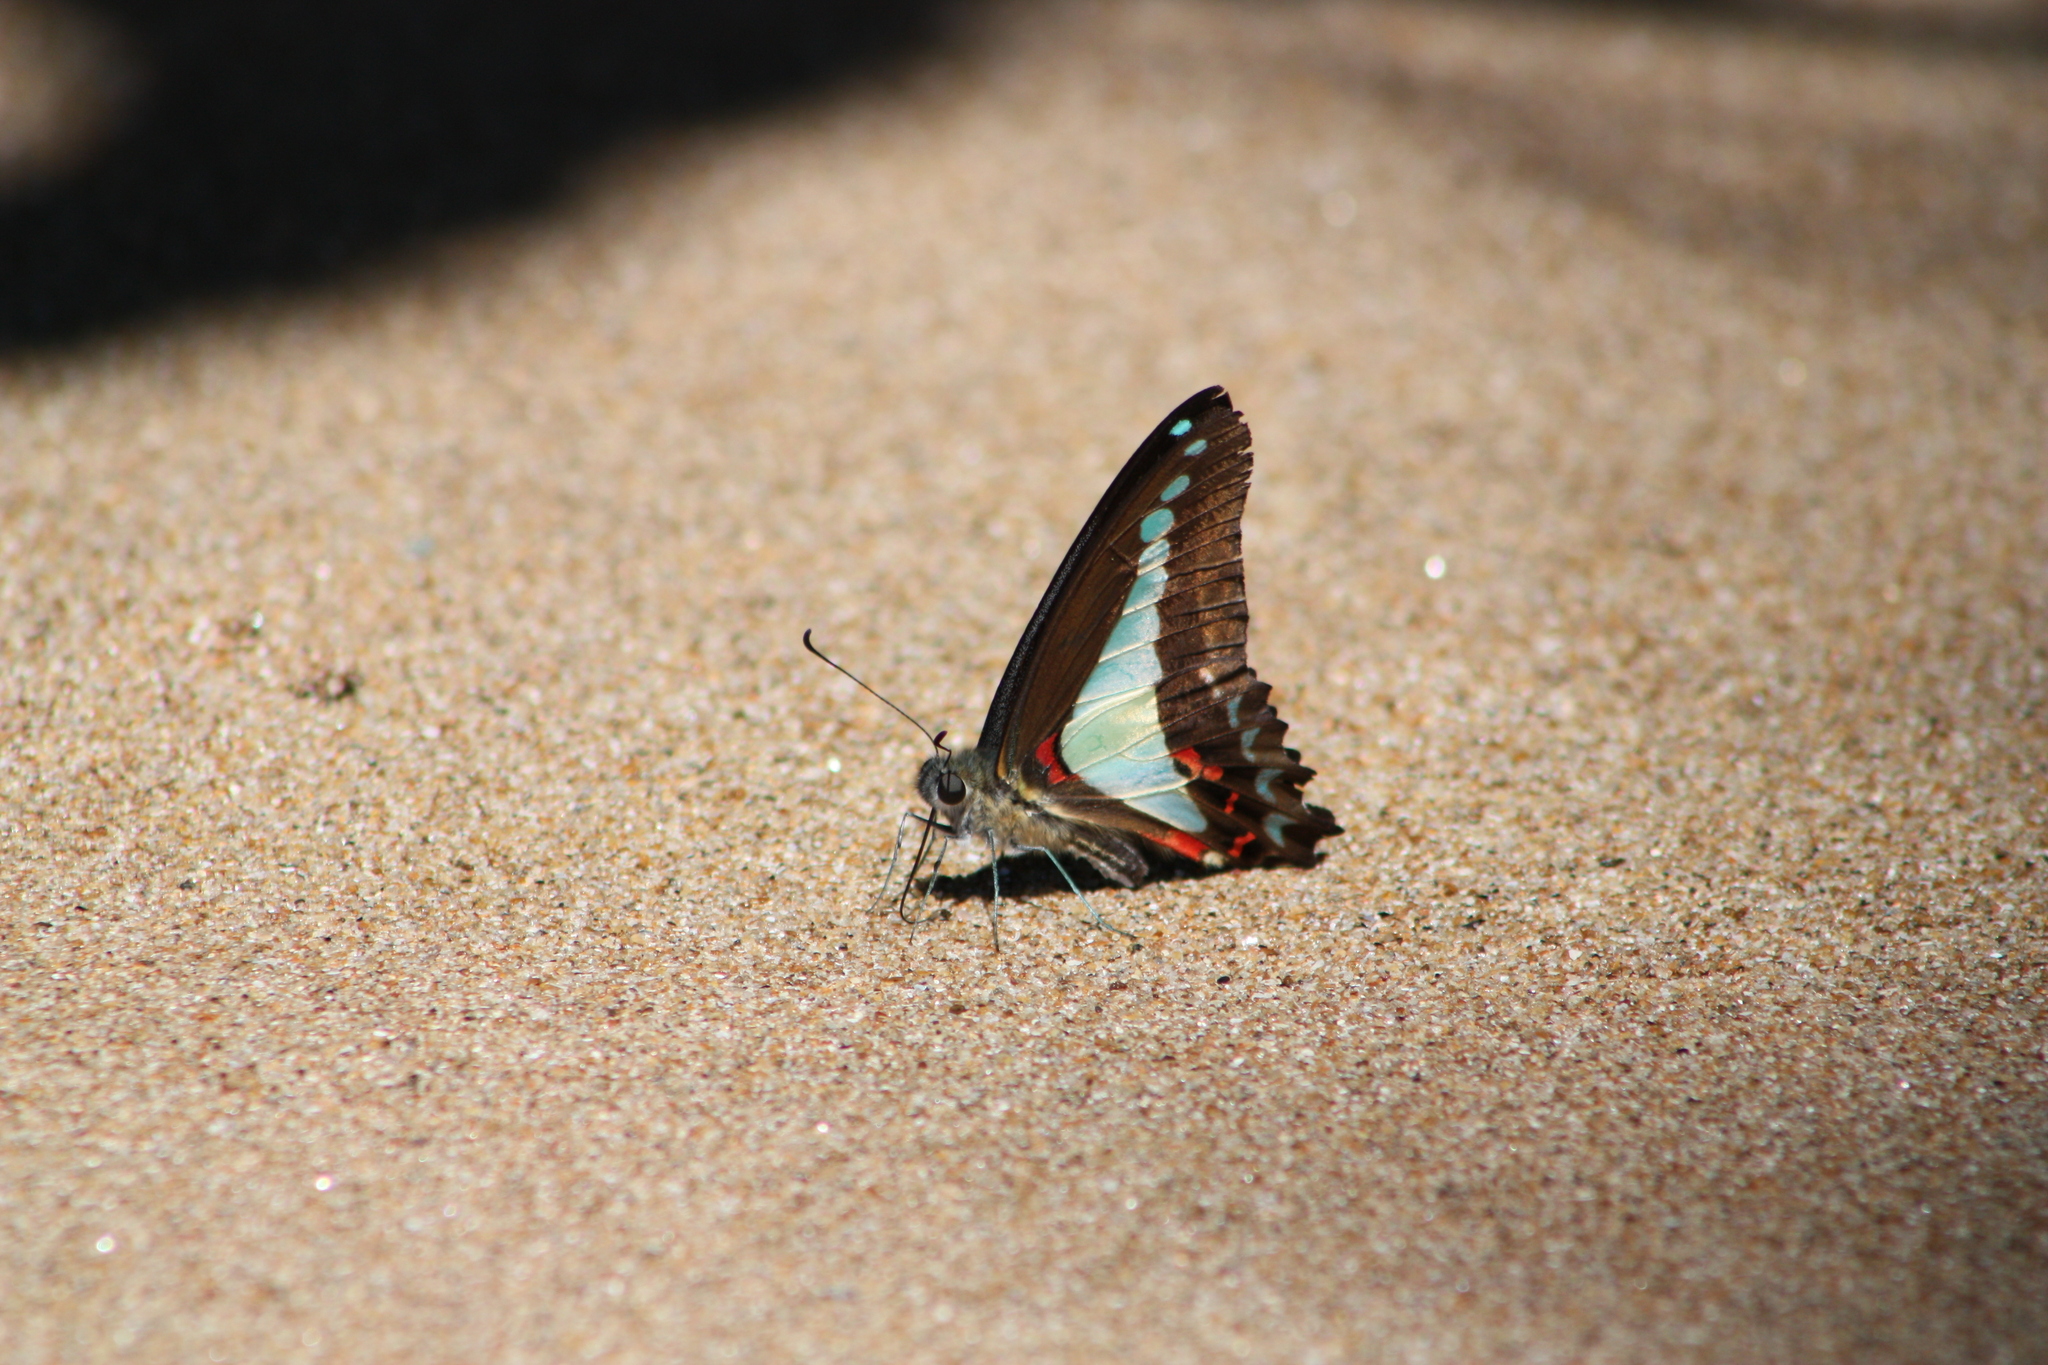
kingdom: Animalia
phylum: Arthropoda
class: Insecta
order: Lepidoptera
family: Papilionidae
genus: Graphium
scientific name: Graphium
